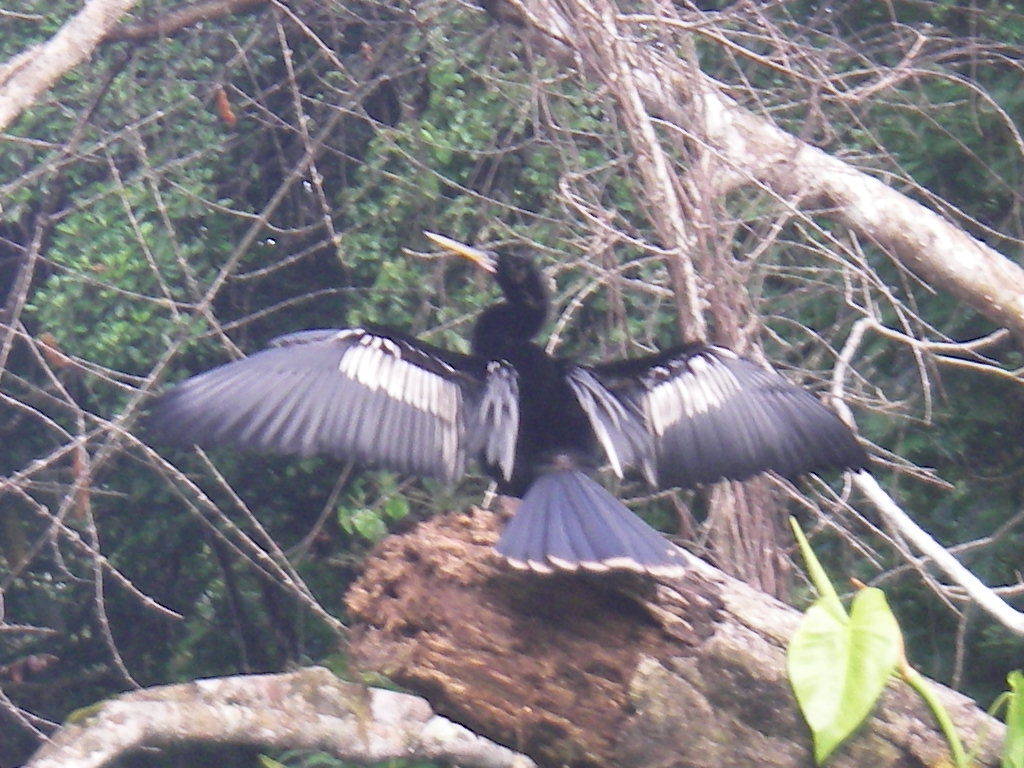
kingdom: Animalia
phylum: Chordata
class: Aves
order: Suliformes
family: Anhingidae
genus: Anhinga
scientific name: Anhinga anhinga
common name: Anhinga
